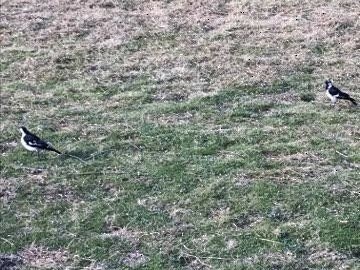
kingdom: Animalia
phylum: Chordata
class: Aves
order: Passeriformes
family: Monarchidae
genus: Grallina
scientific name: Grallina cyanoleuca
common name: Magpie-lark
